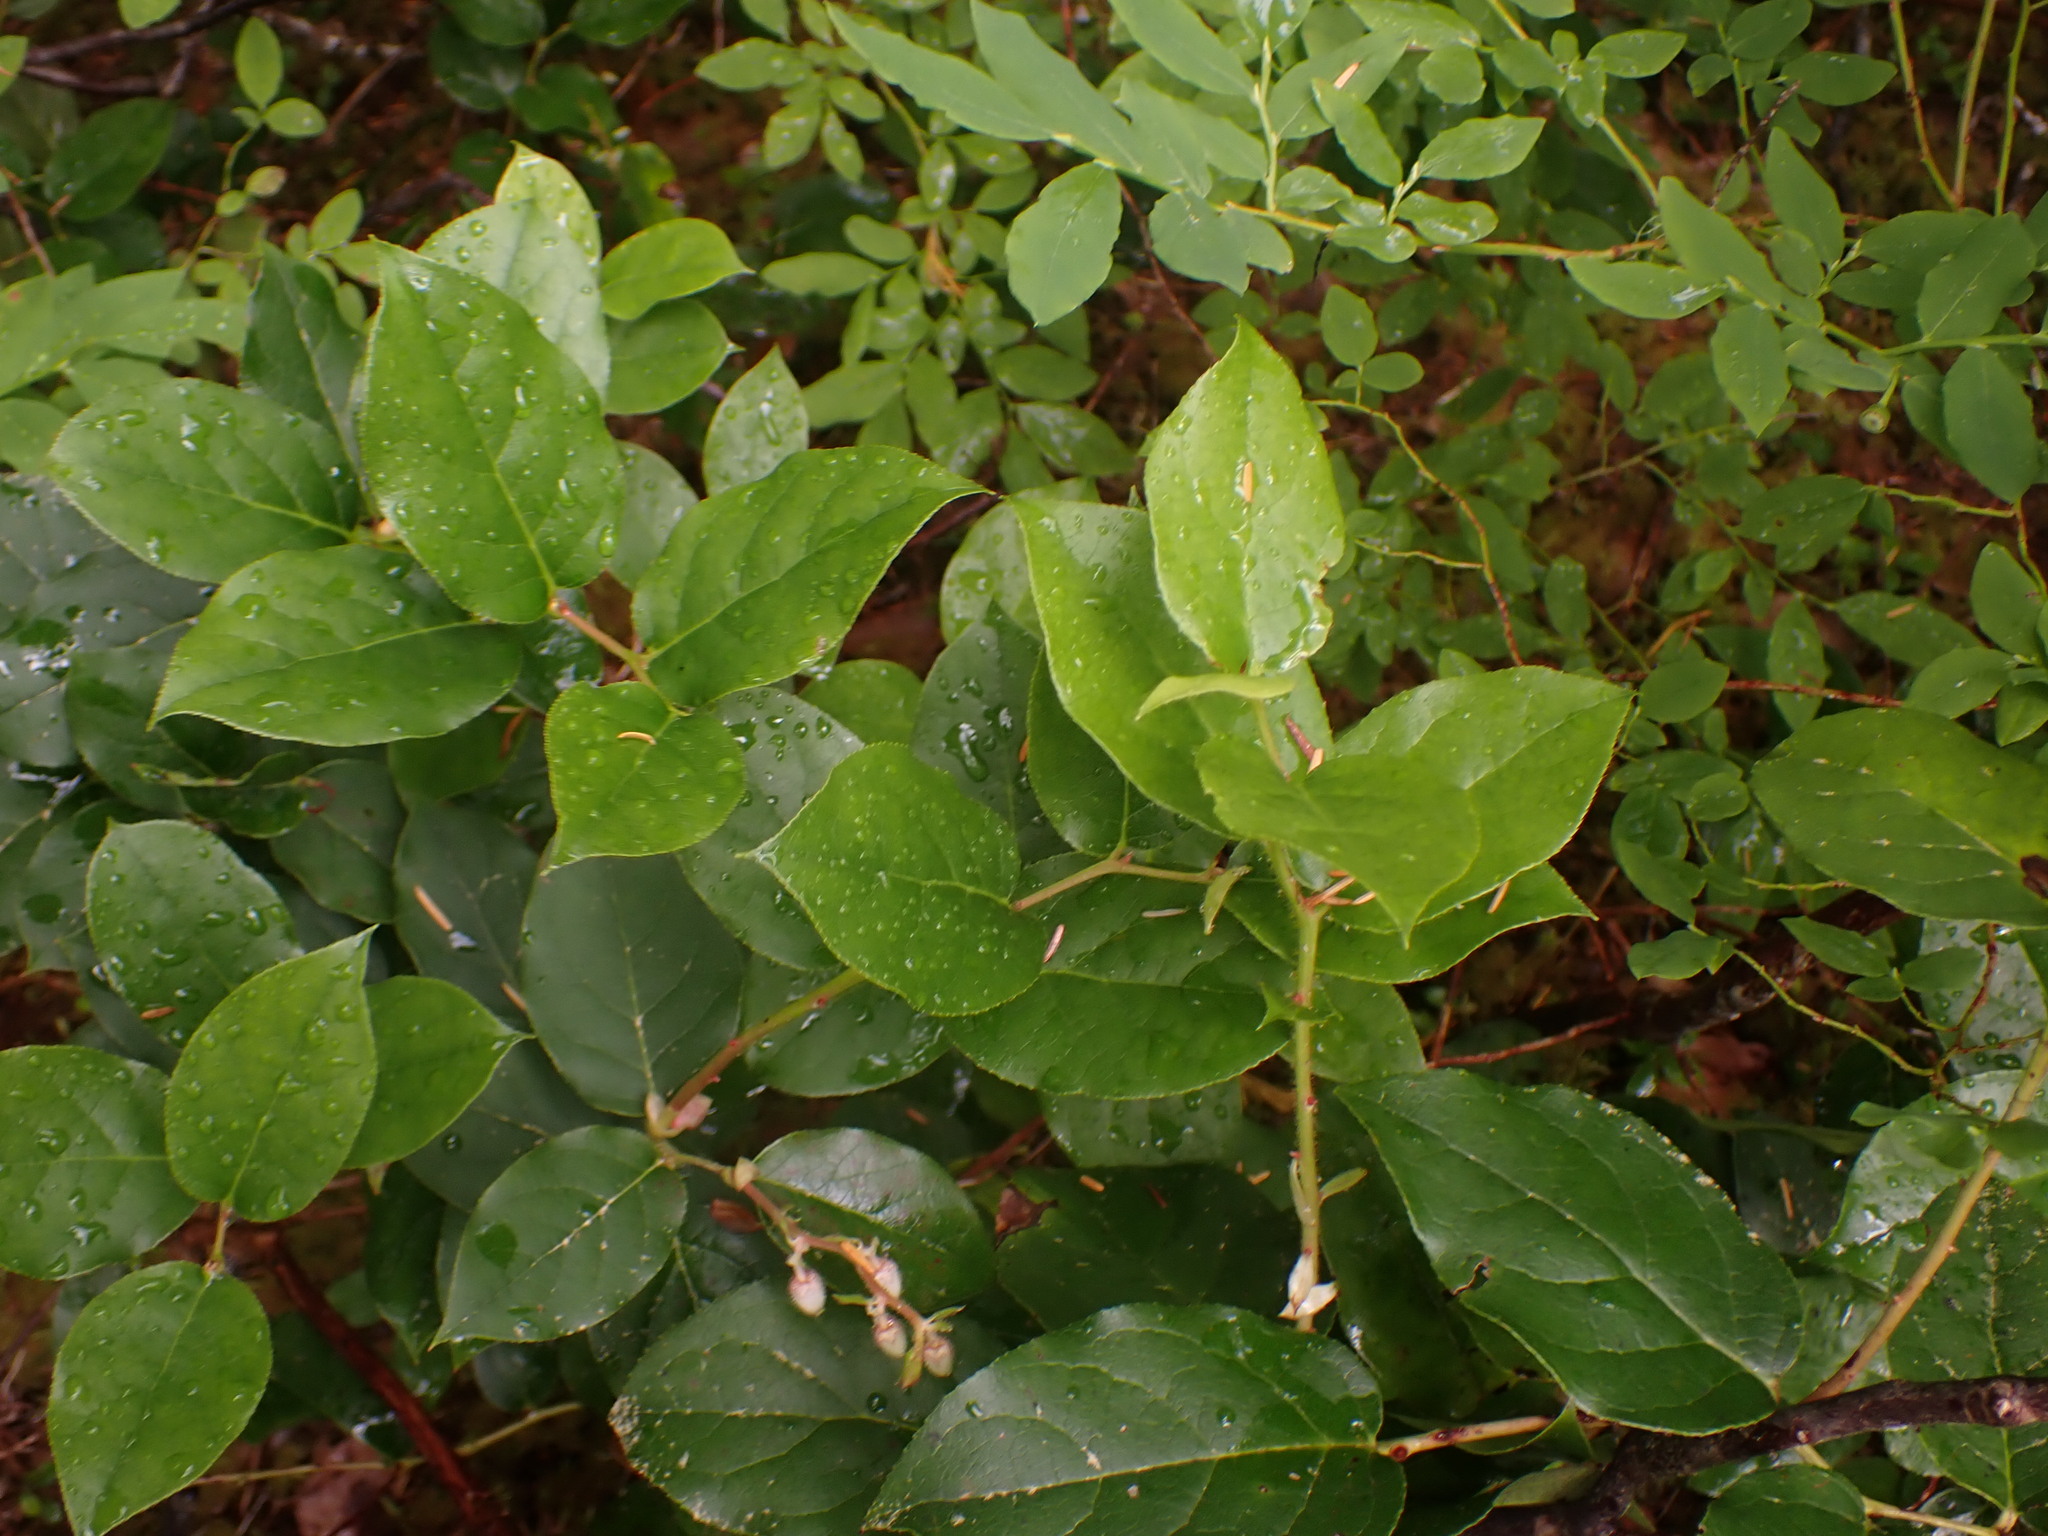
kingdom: Plantae
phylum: Tracheophyta
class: Magnoliopsida
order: Ericales
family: Ericaceae
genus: Gaultheria
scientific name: Gaultheria shallon
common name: Shallon
